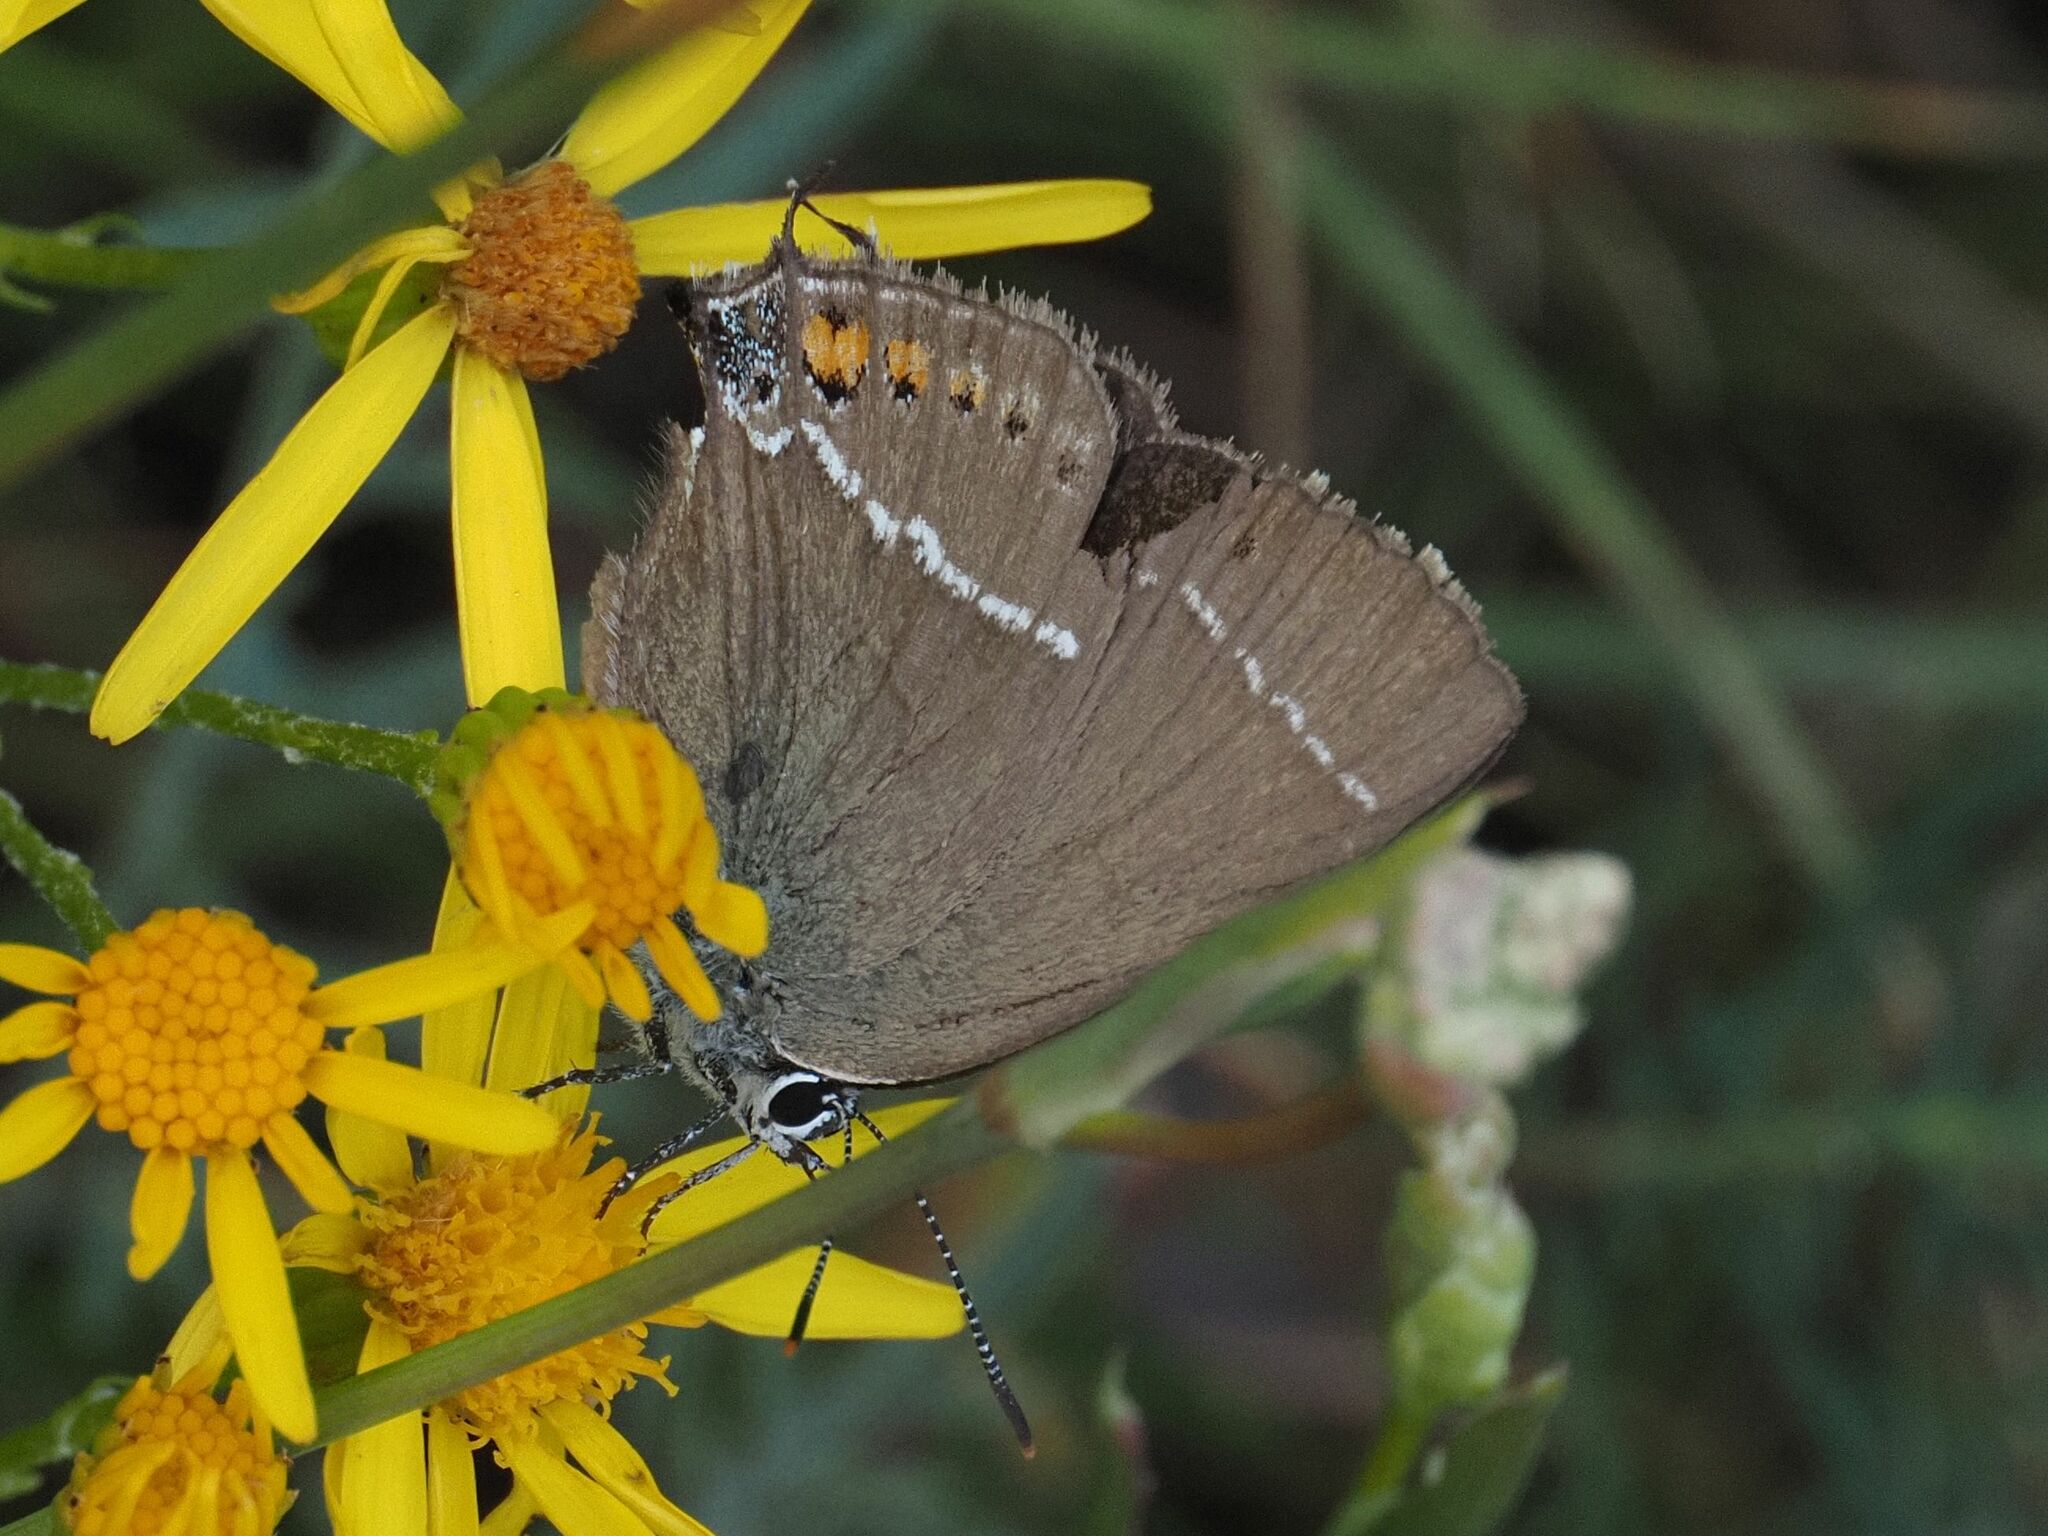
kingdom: Animalia
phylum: Arthropoda
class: Insecta
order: Lepidoptera
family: Lycaenidae
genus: Tuttiola
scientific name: Tuttiola spini
